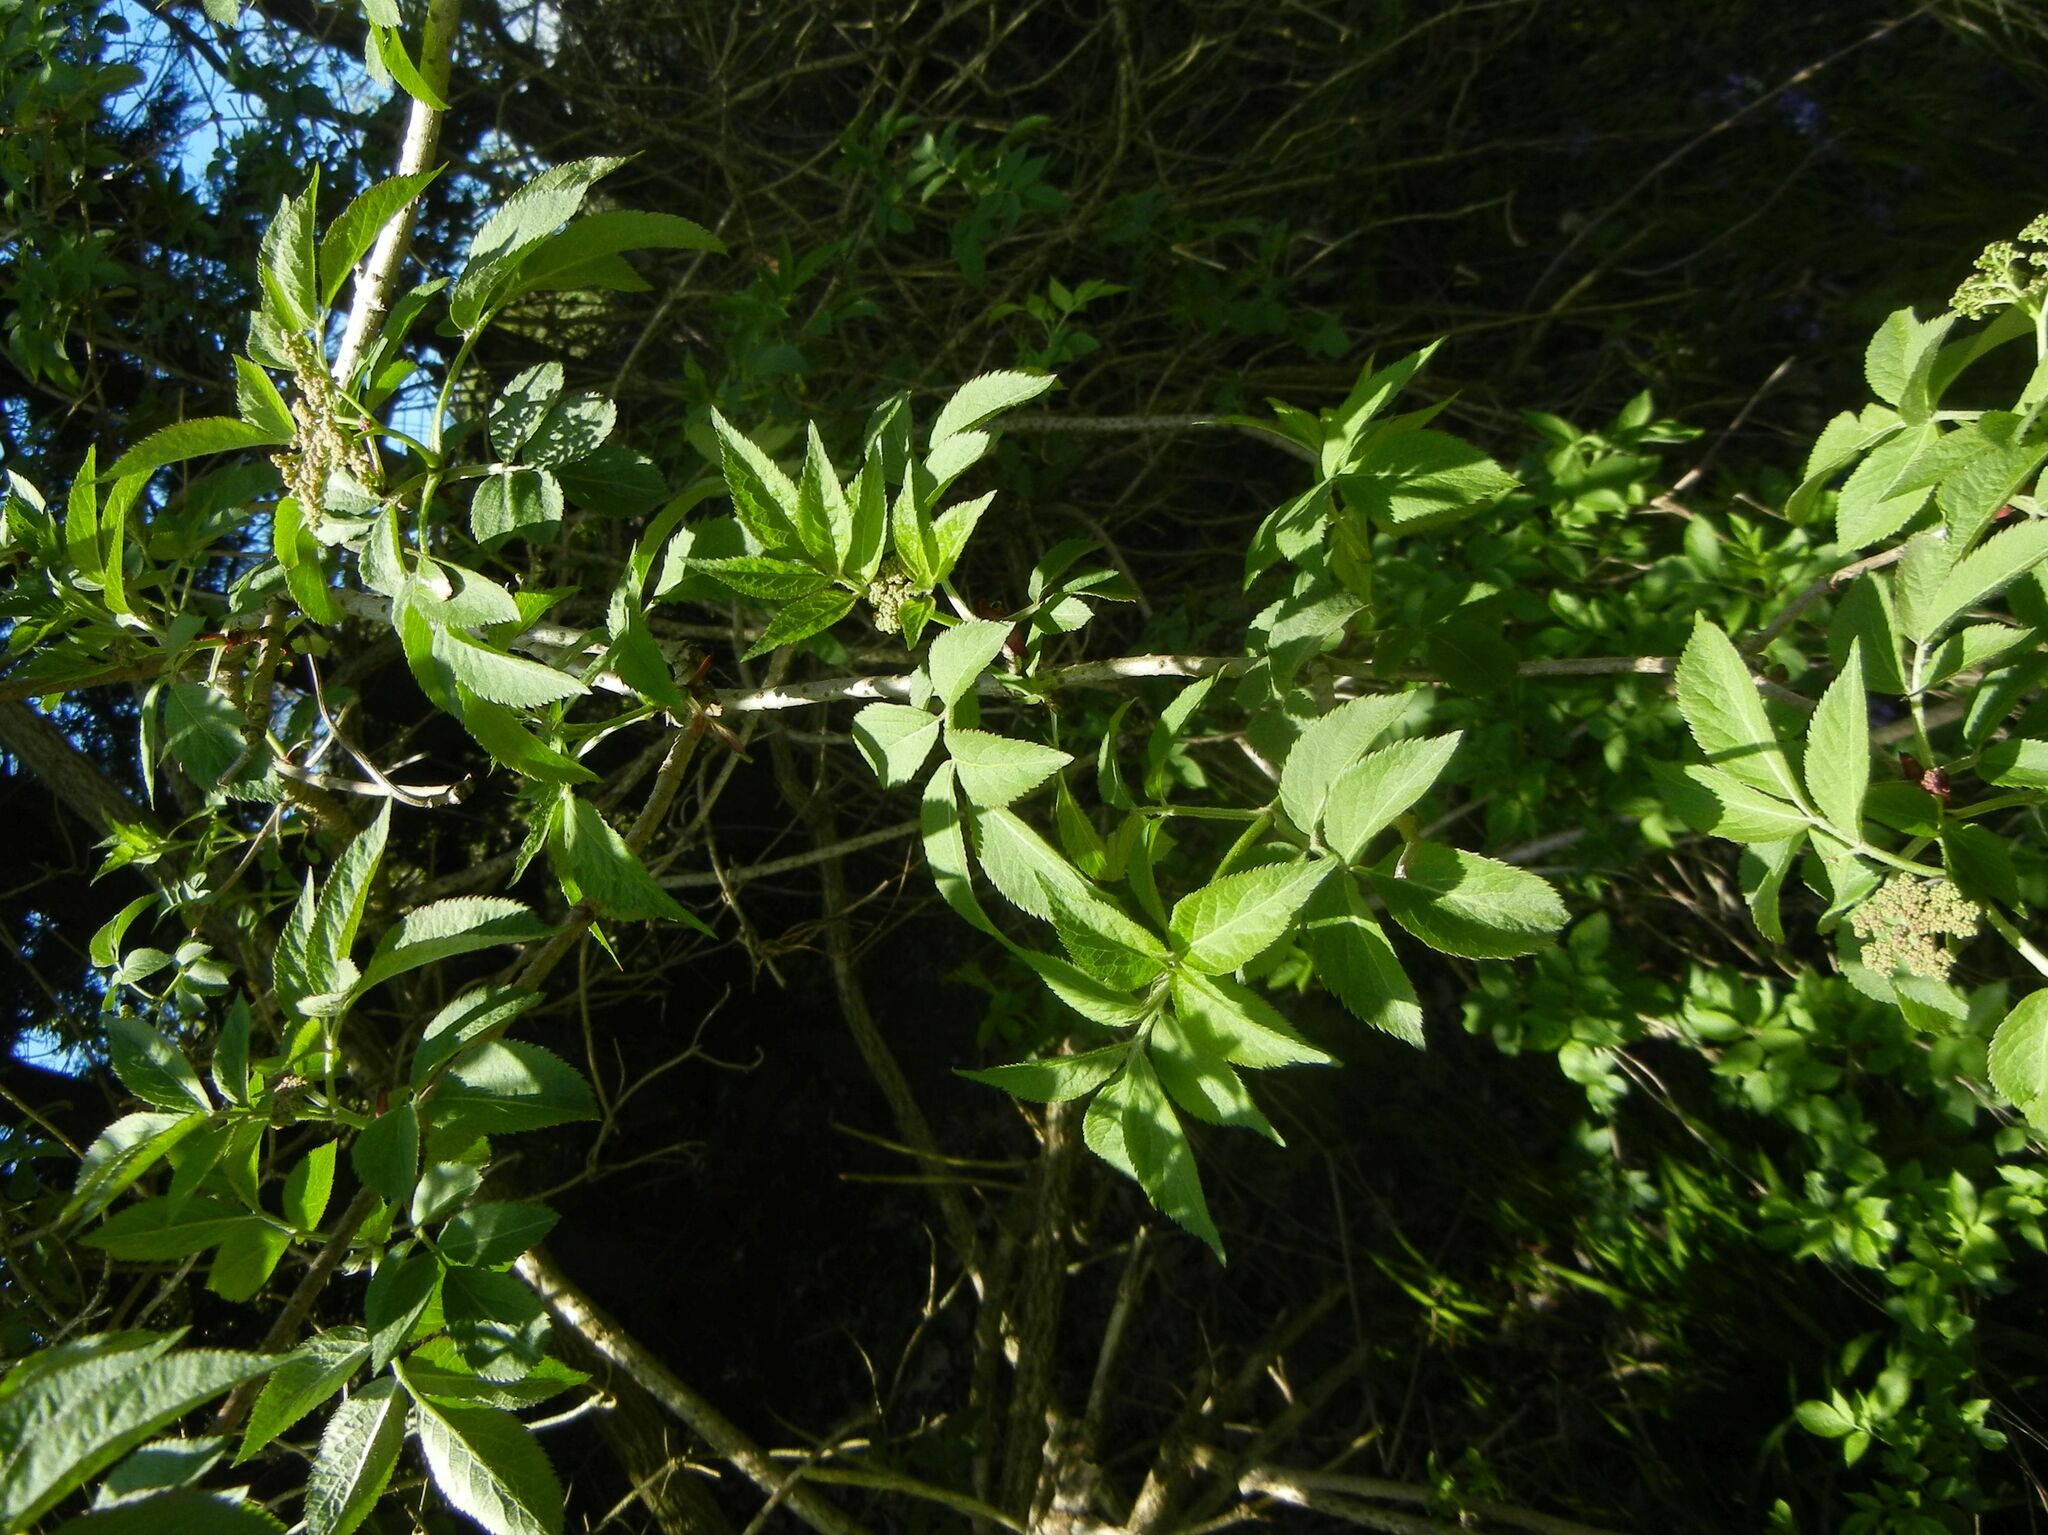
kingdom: Plantae
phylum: Tracheophyta
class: Magnoliopsida
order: Dipsacales
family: Viburnaceae
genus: Sambucus
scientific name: Sambucus nigra
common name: Elder
